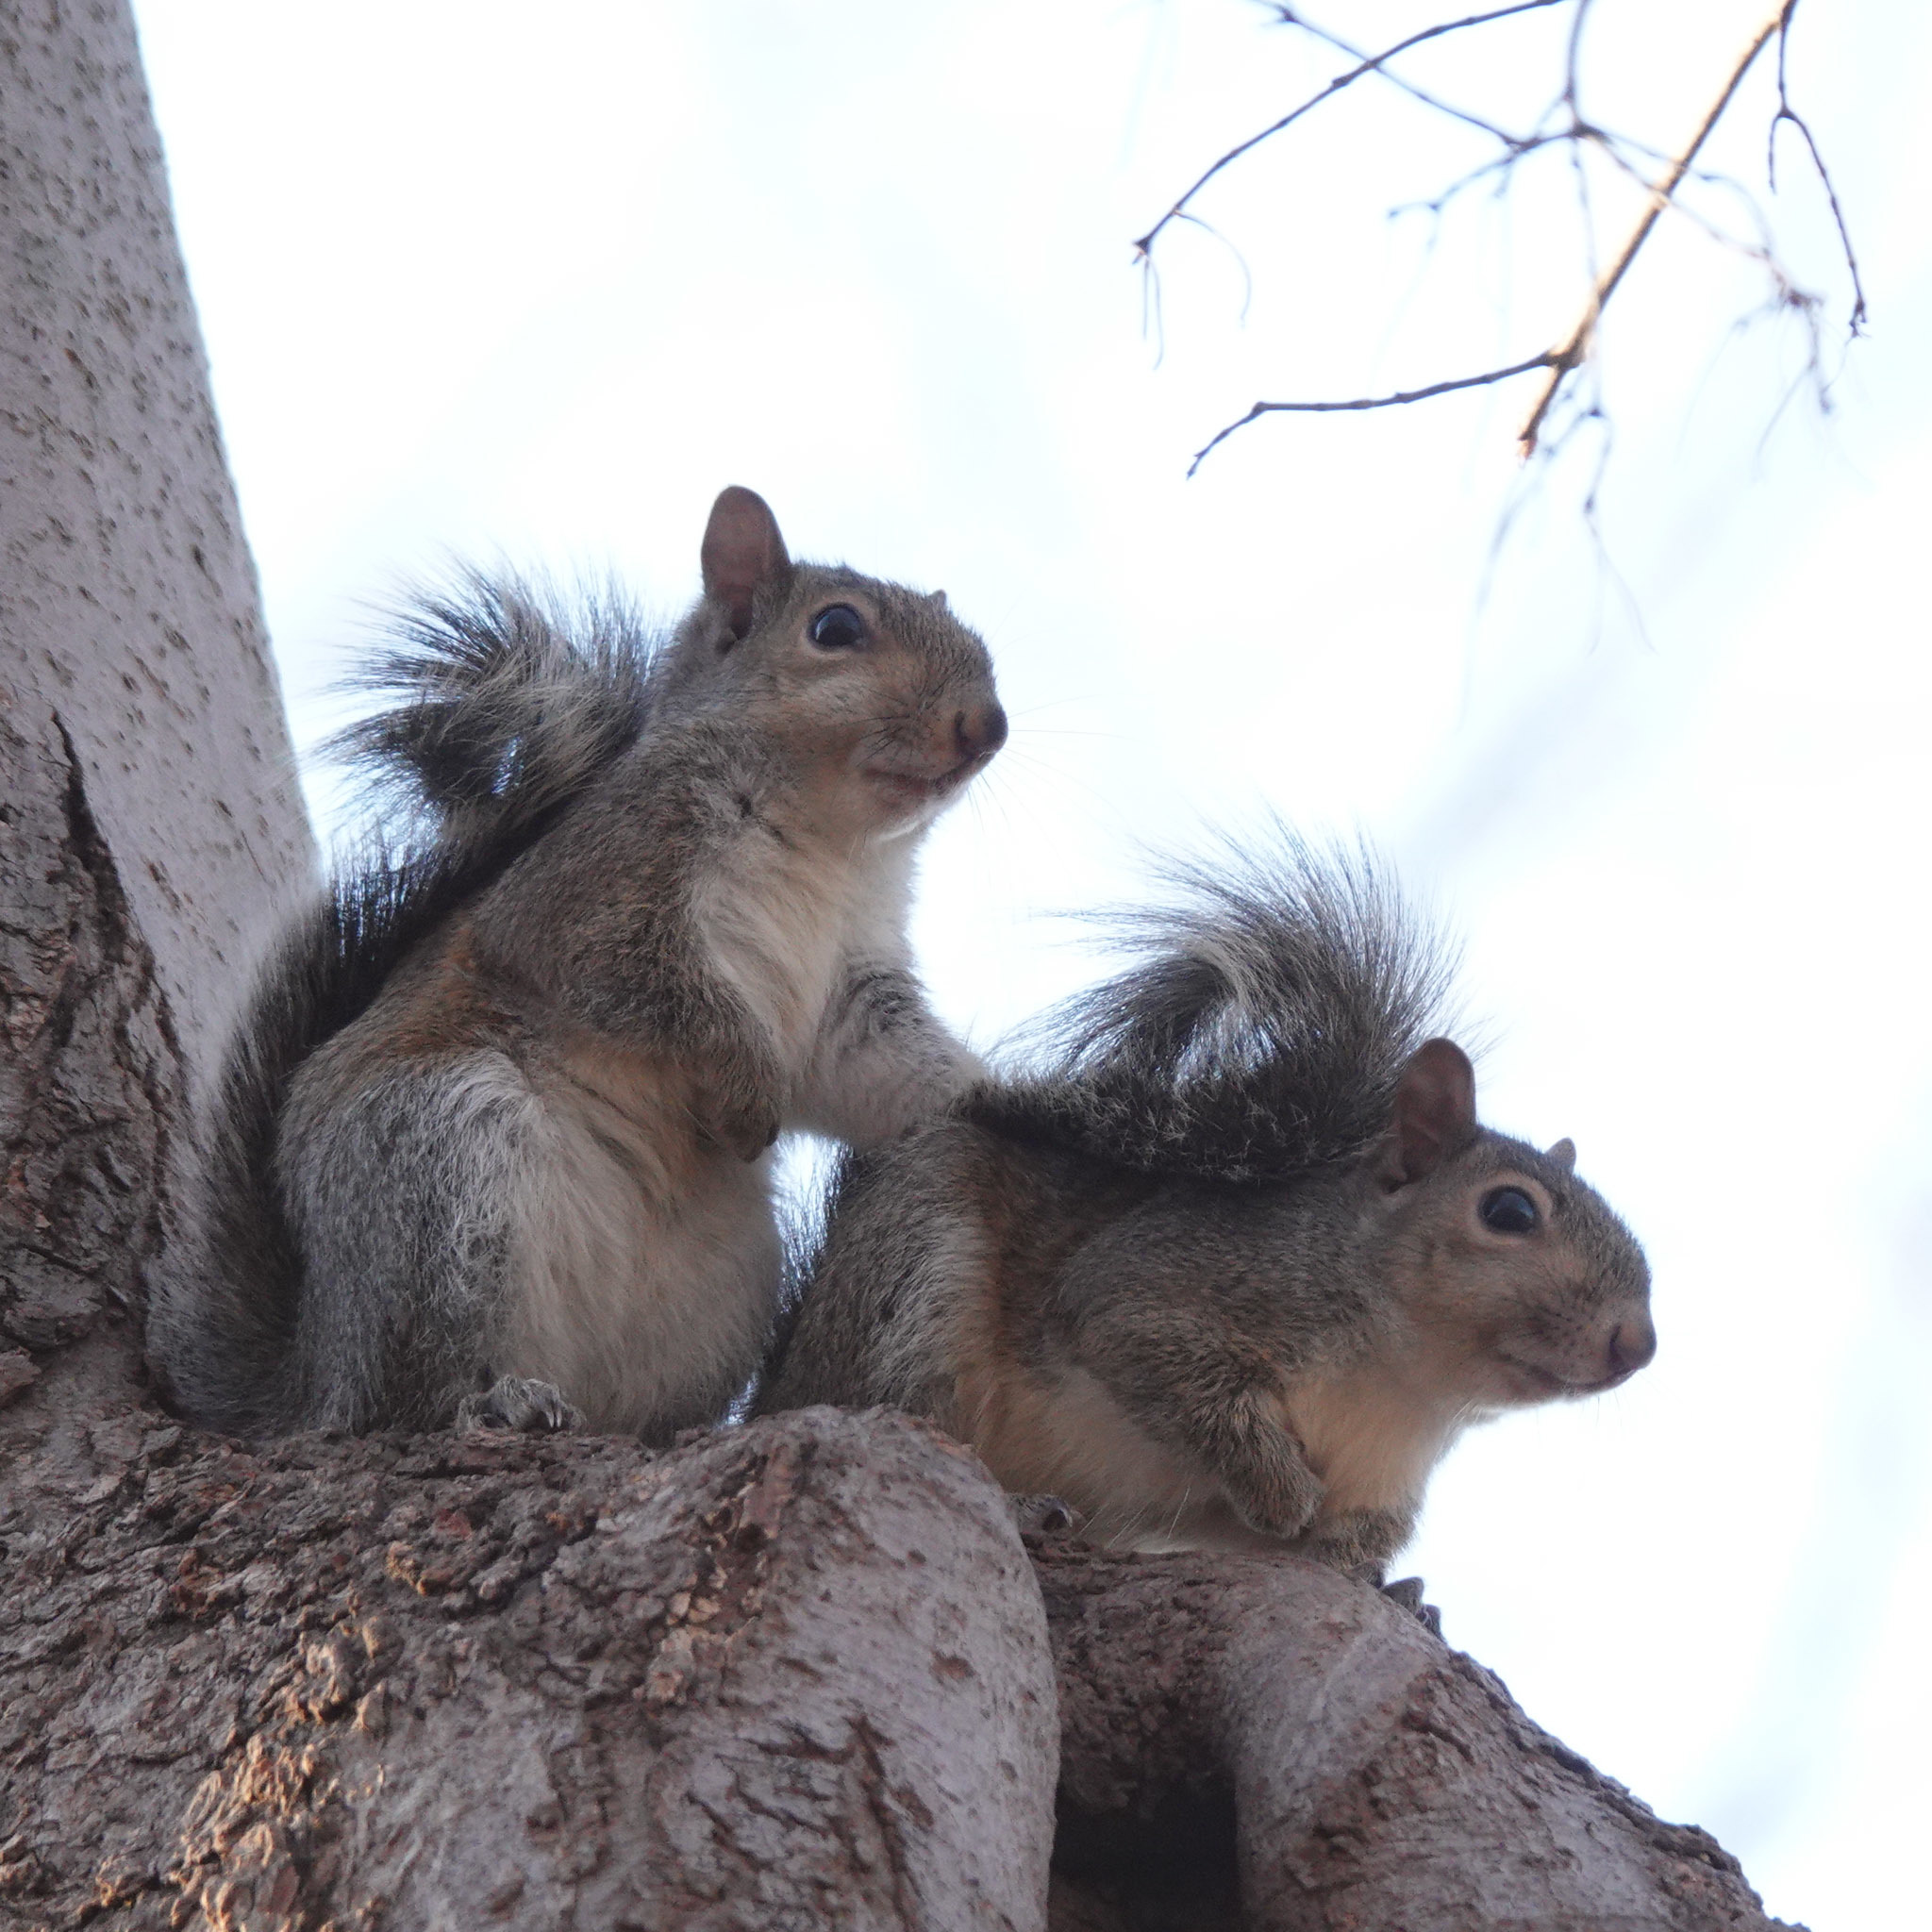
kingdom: Animalia
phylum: Chordata
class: Mammalia
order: Rodentia
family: Sciuridae
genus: Sciurus
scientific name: Sciurus carolinensis
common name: Eastern gray squirrel
